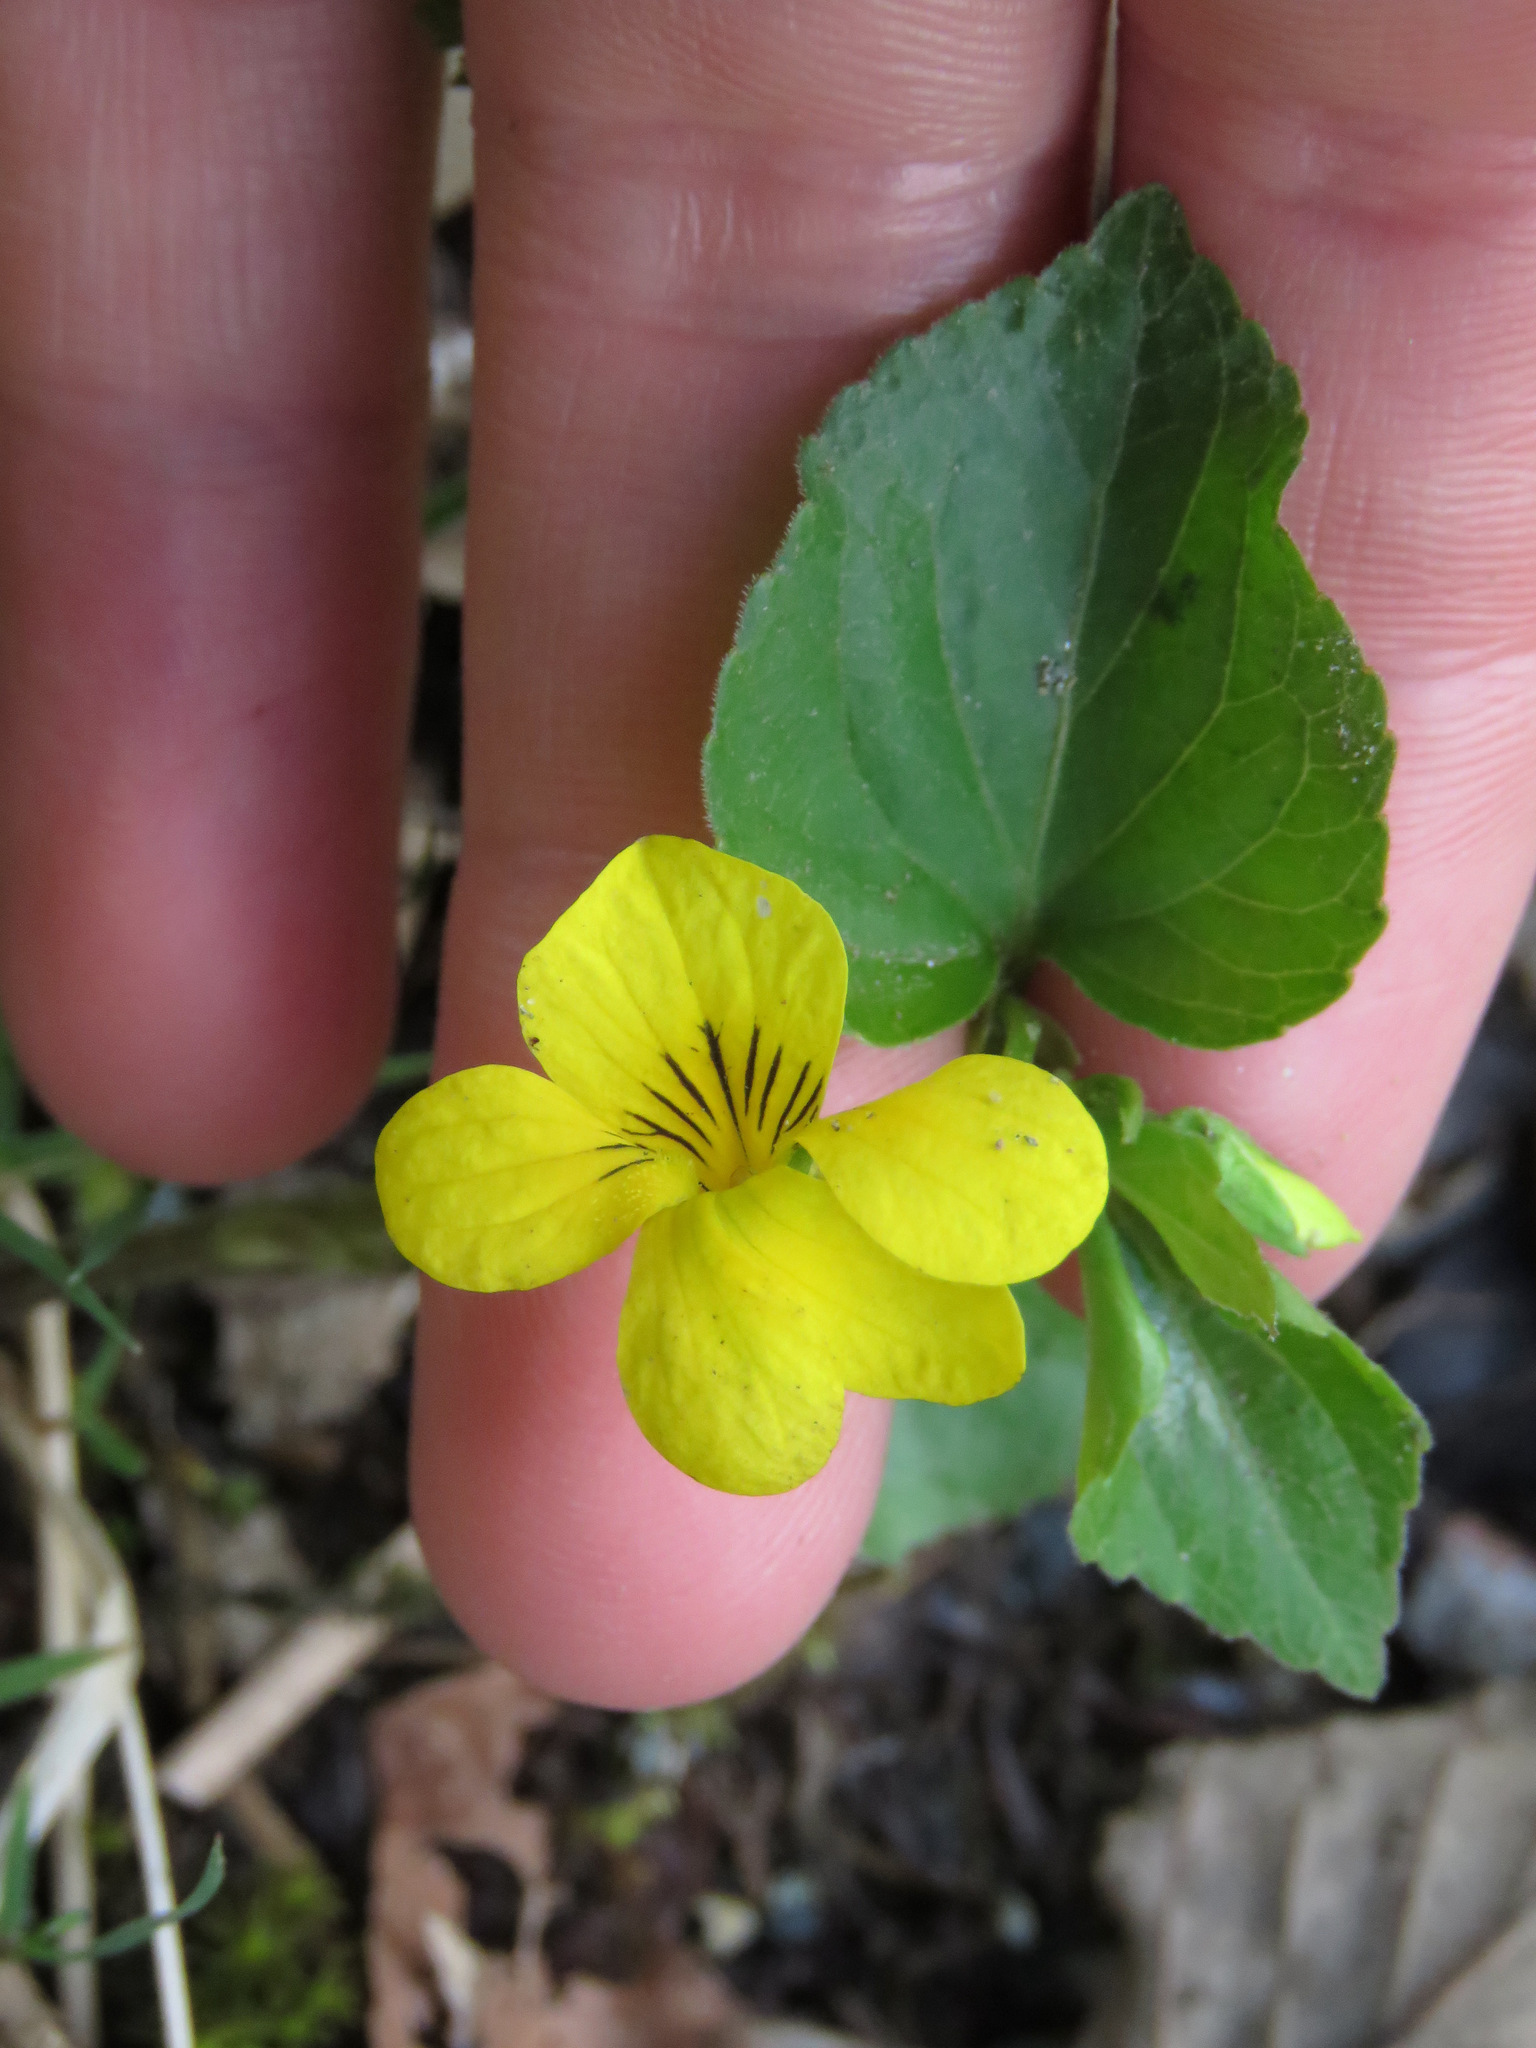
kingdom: Plantae
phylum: Tracheophyta
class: Magnoliopsida
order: Malpighiales
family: Violaceae
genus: Viola
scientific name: Viola glabella
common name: Stream violet
